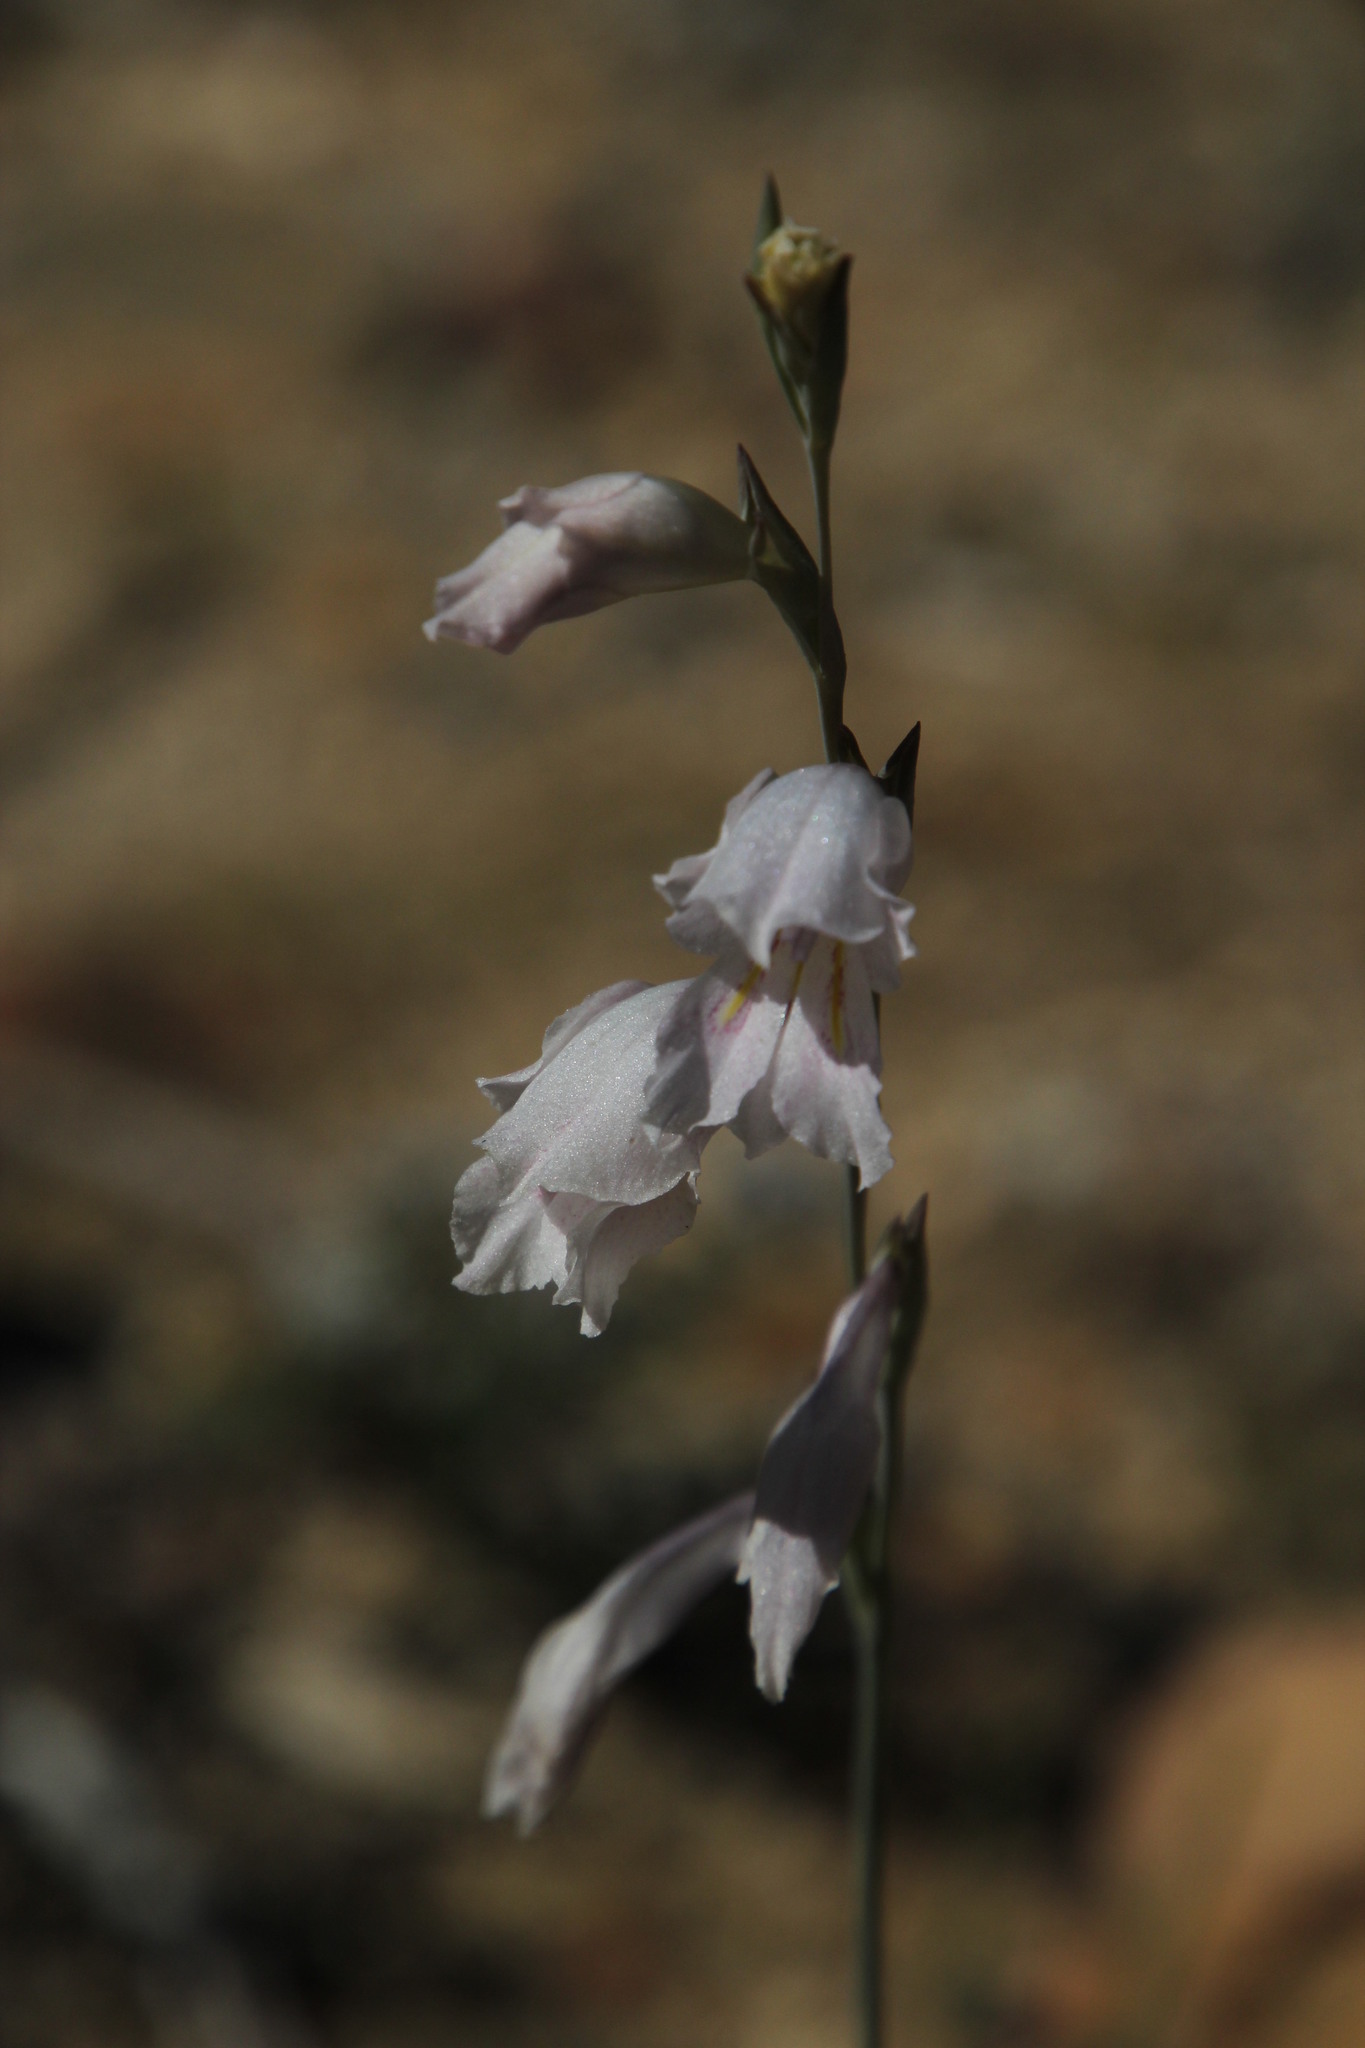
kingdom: Plantae
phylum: Tracheophyta
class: Liliopsida
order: Asparagales
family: Iridaceae
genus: Gladiolus
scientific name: Gladiolus martleyi
